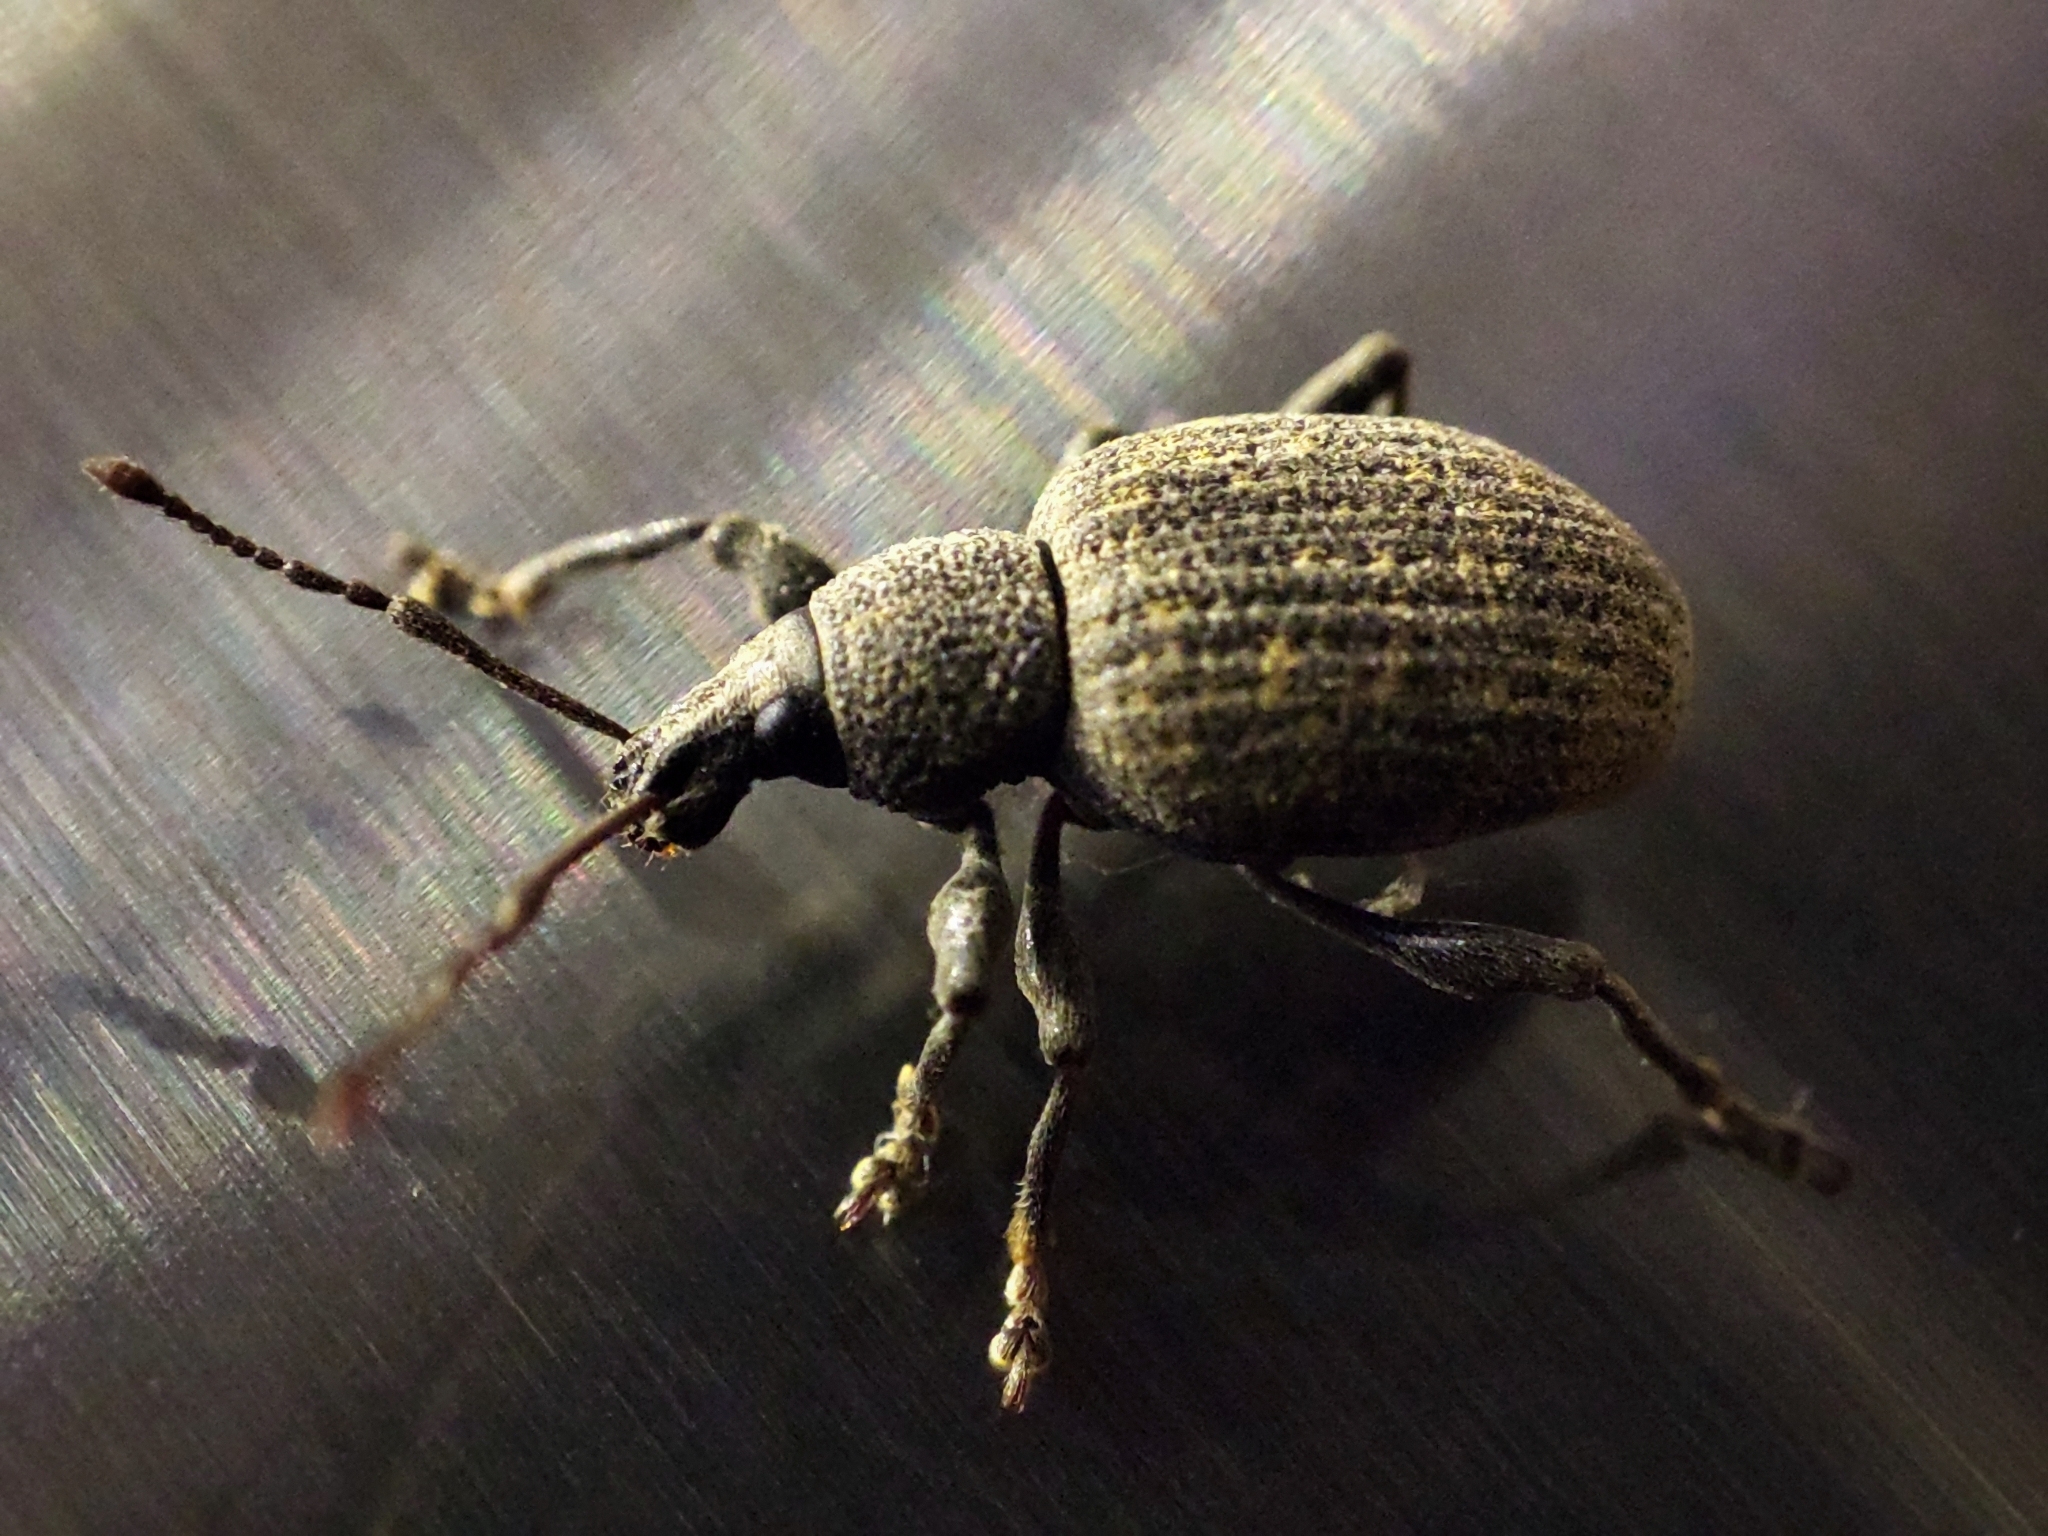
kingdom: Animalia
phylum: Arthropoda
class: Insecta
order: Coleoptera
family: Curculionidae
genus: Otiorhynchus
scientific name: Otiorhynchus sulcatus
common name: Black vine weevil
